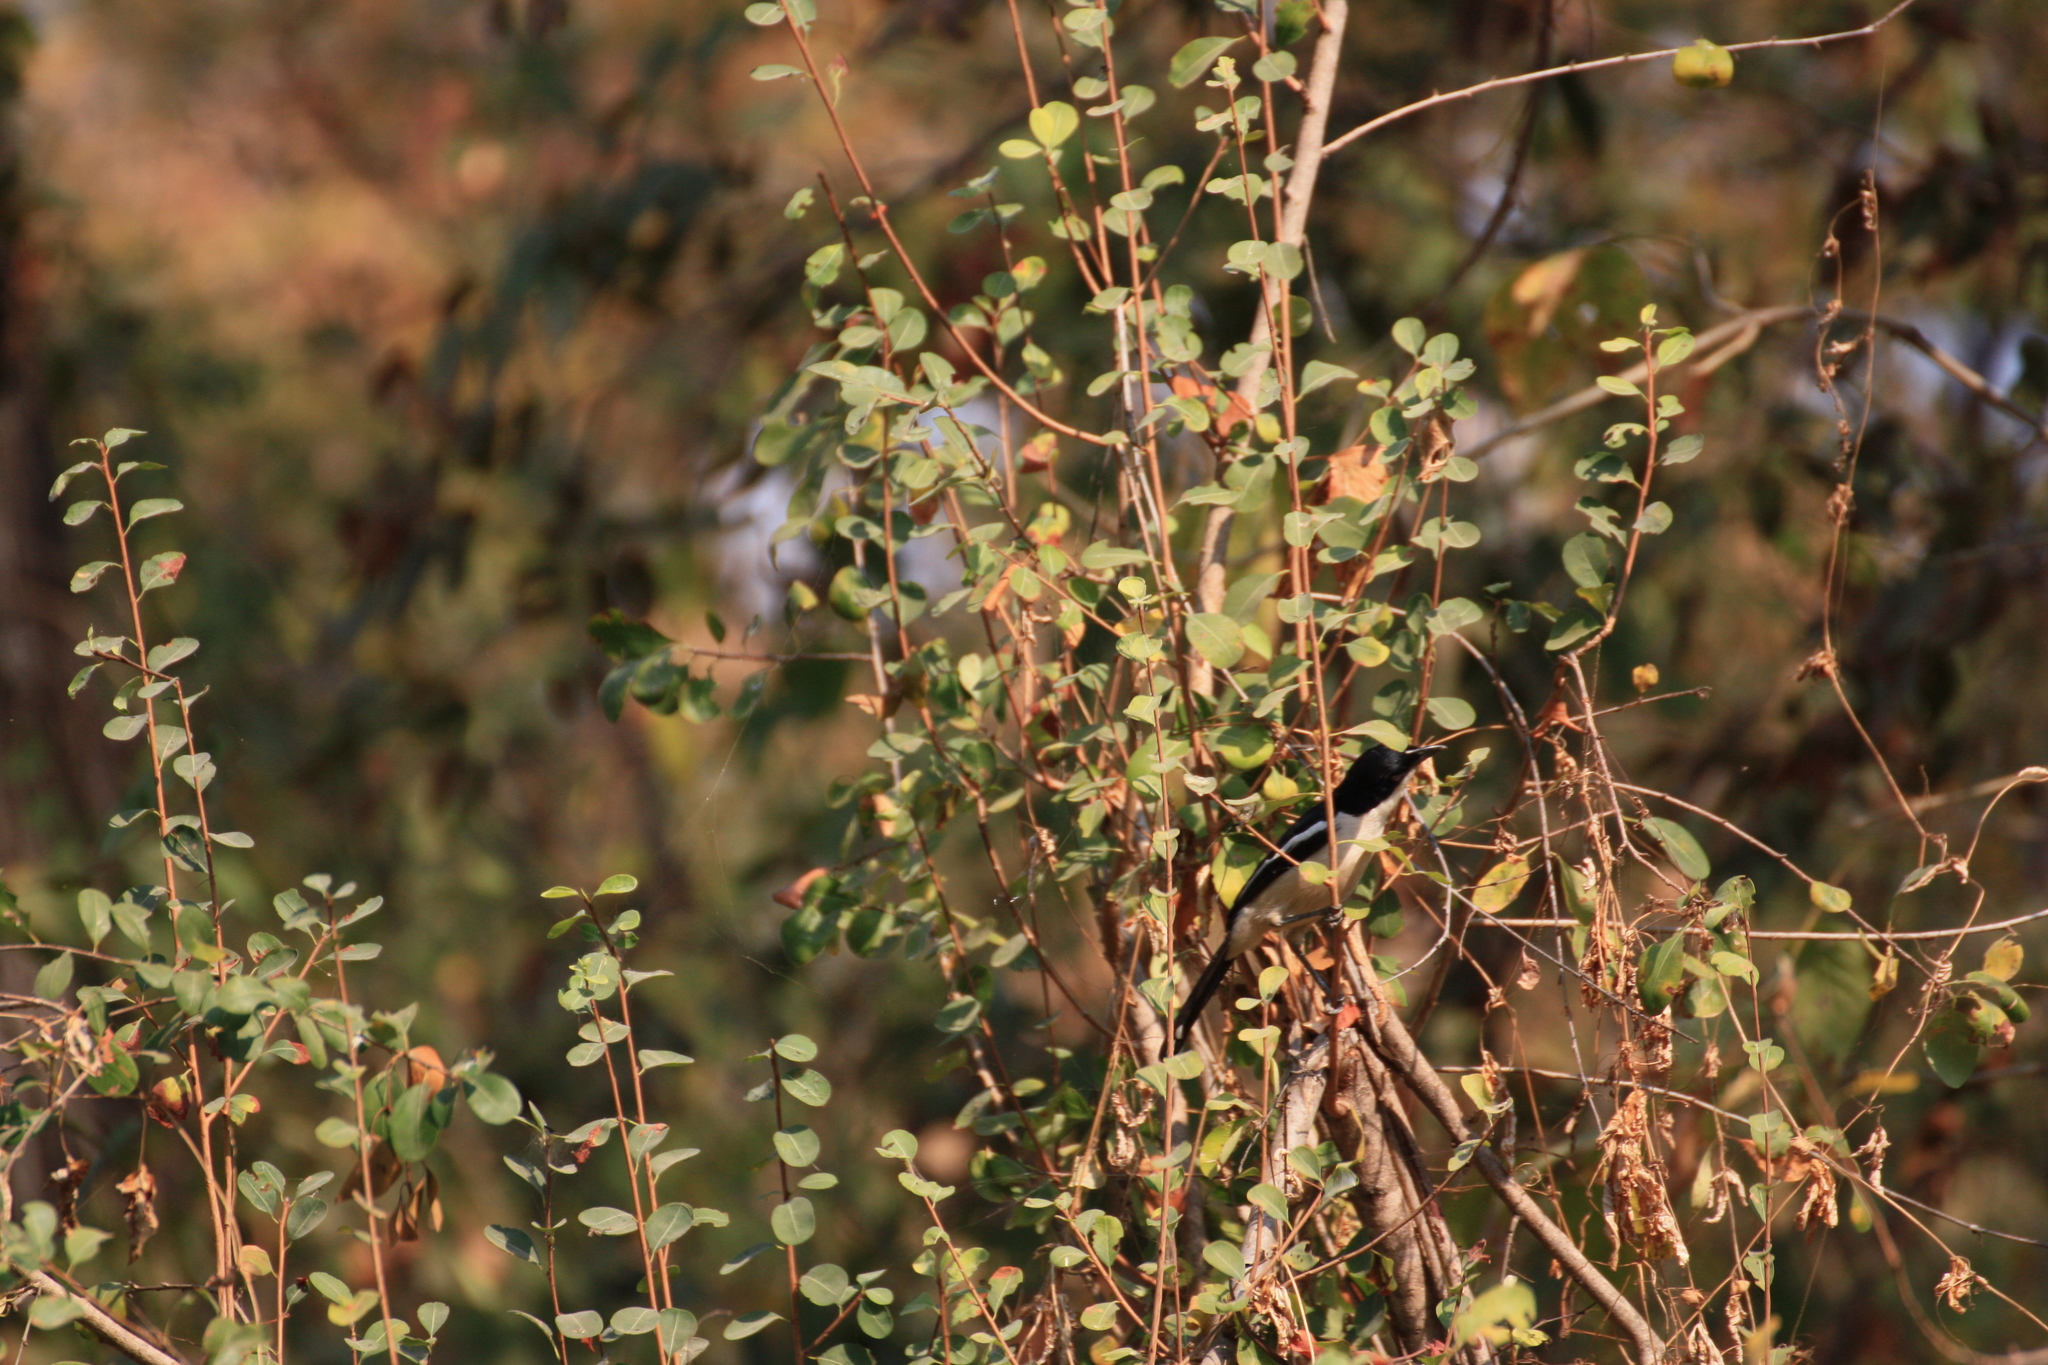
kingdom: Animalia
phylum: Chordata
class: Aves
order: Passeriformes
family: Malaconotidae
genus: Laniarius
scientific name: Laniarius major
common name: Tropical boubou
